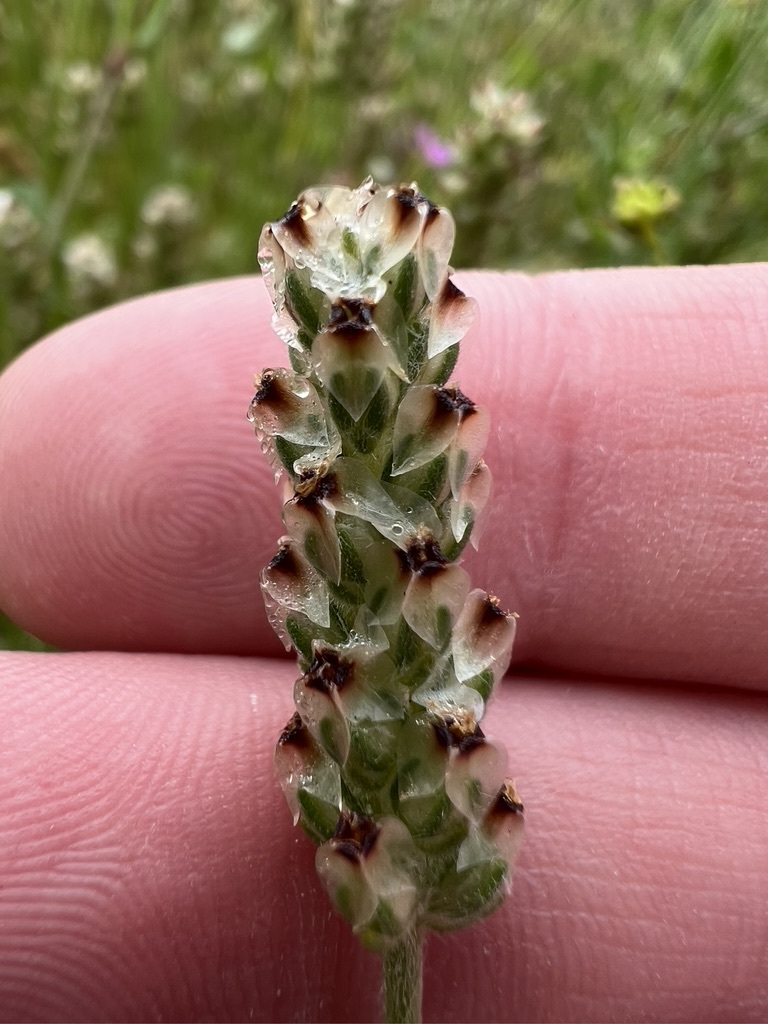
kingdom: Plantae
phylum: Tracheophyta
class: Magnoliopsida
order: Lamiales
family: Plantaginaceae
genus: Plantago
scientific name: Plantago erecta
